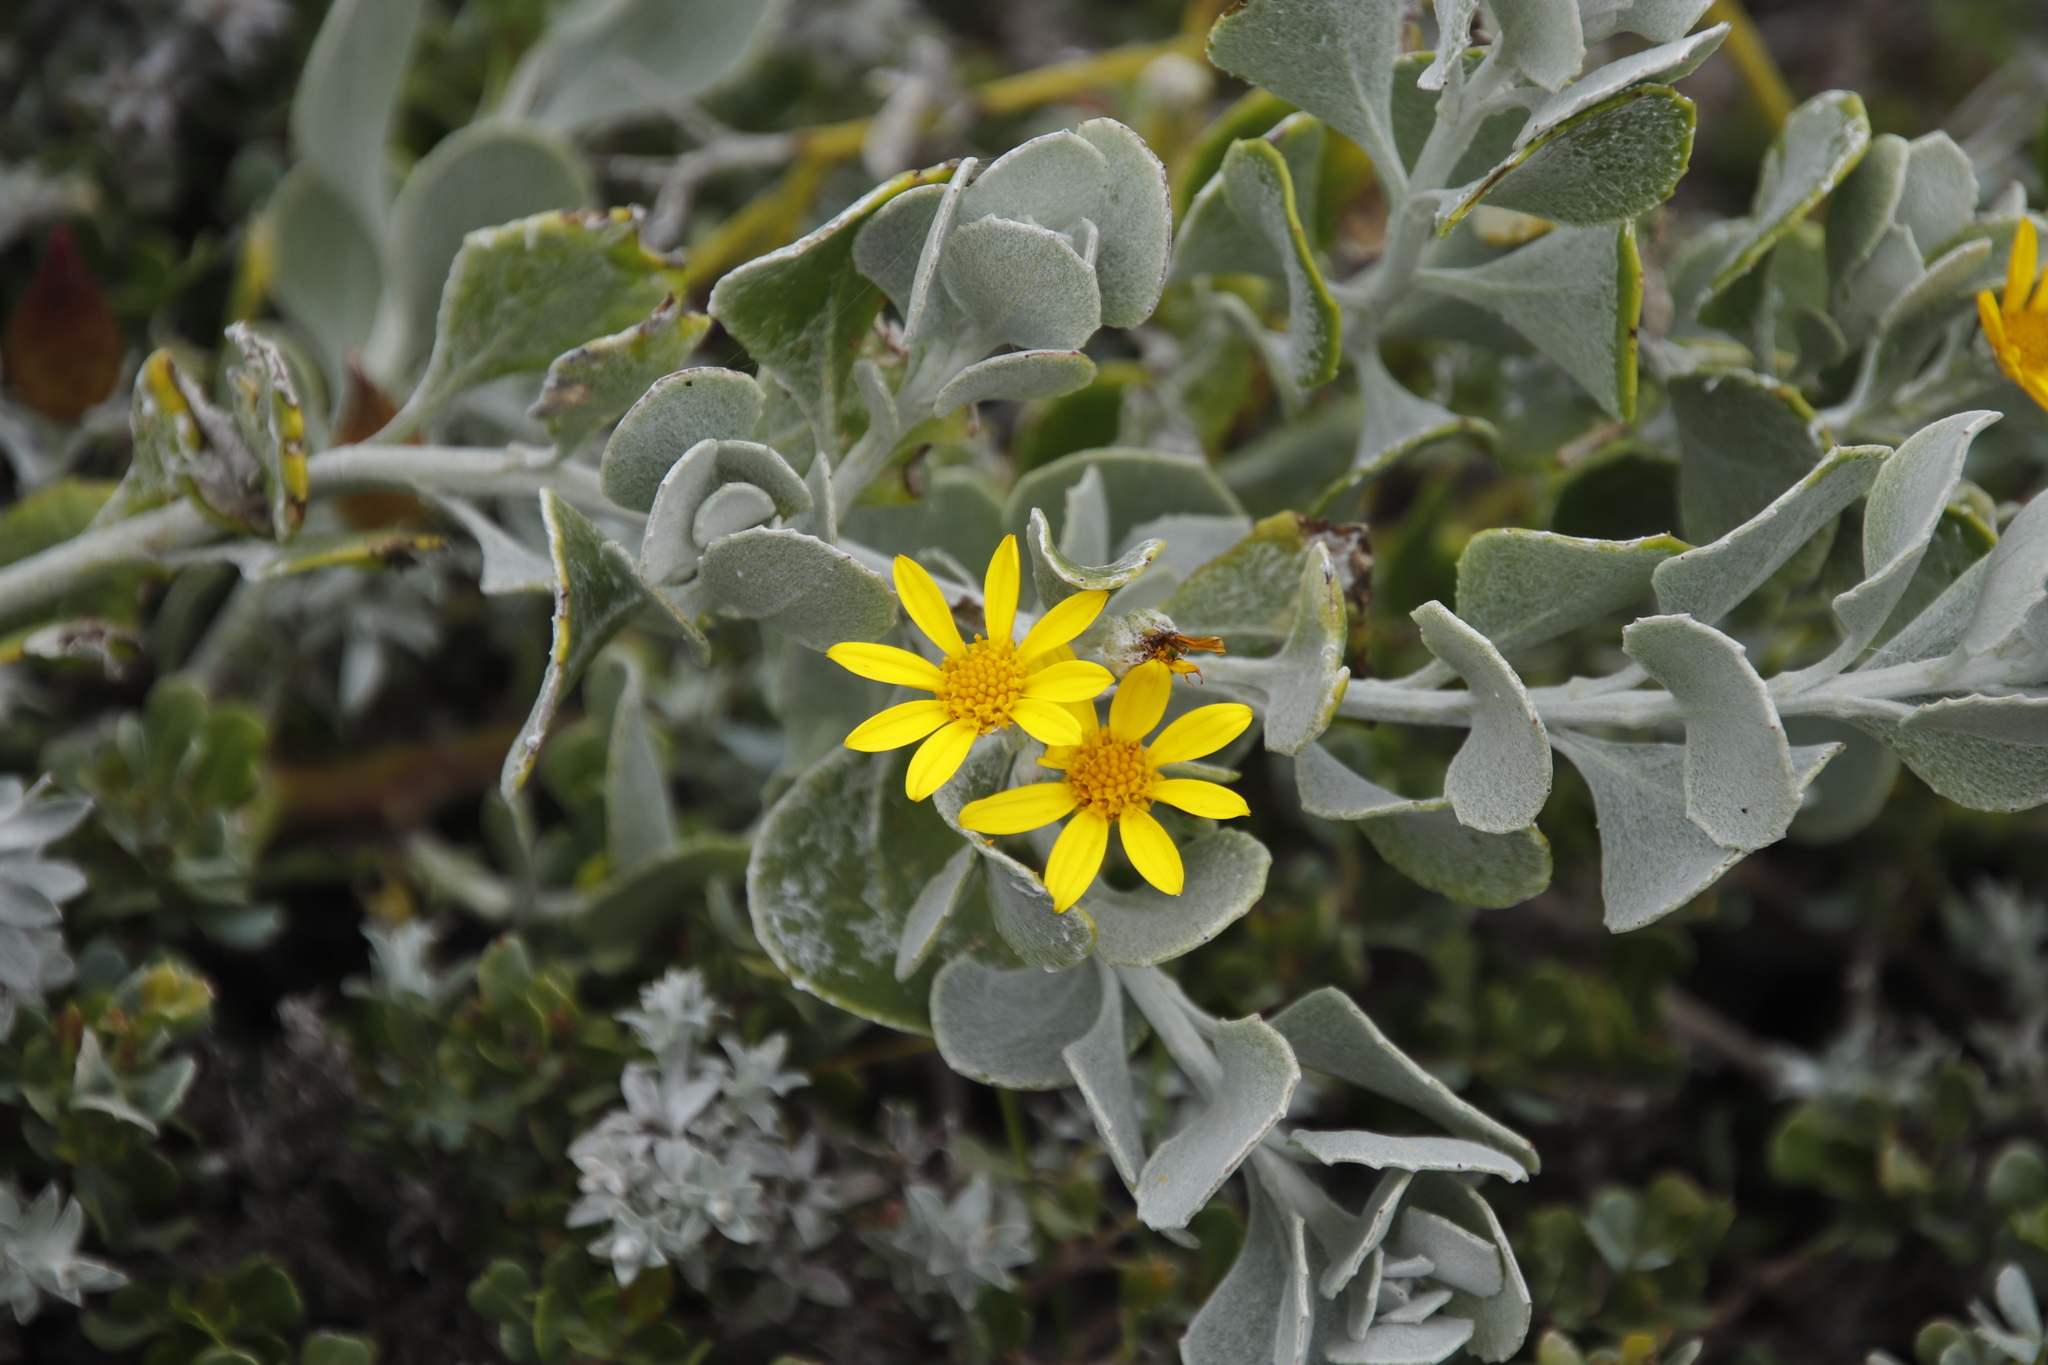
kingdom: Plantae
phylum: Tracheophyta
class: Magnoliopsida
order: Asterales
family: Asteraceae
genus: Osteospermum
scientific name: Osteospermum incanum
